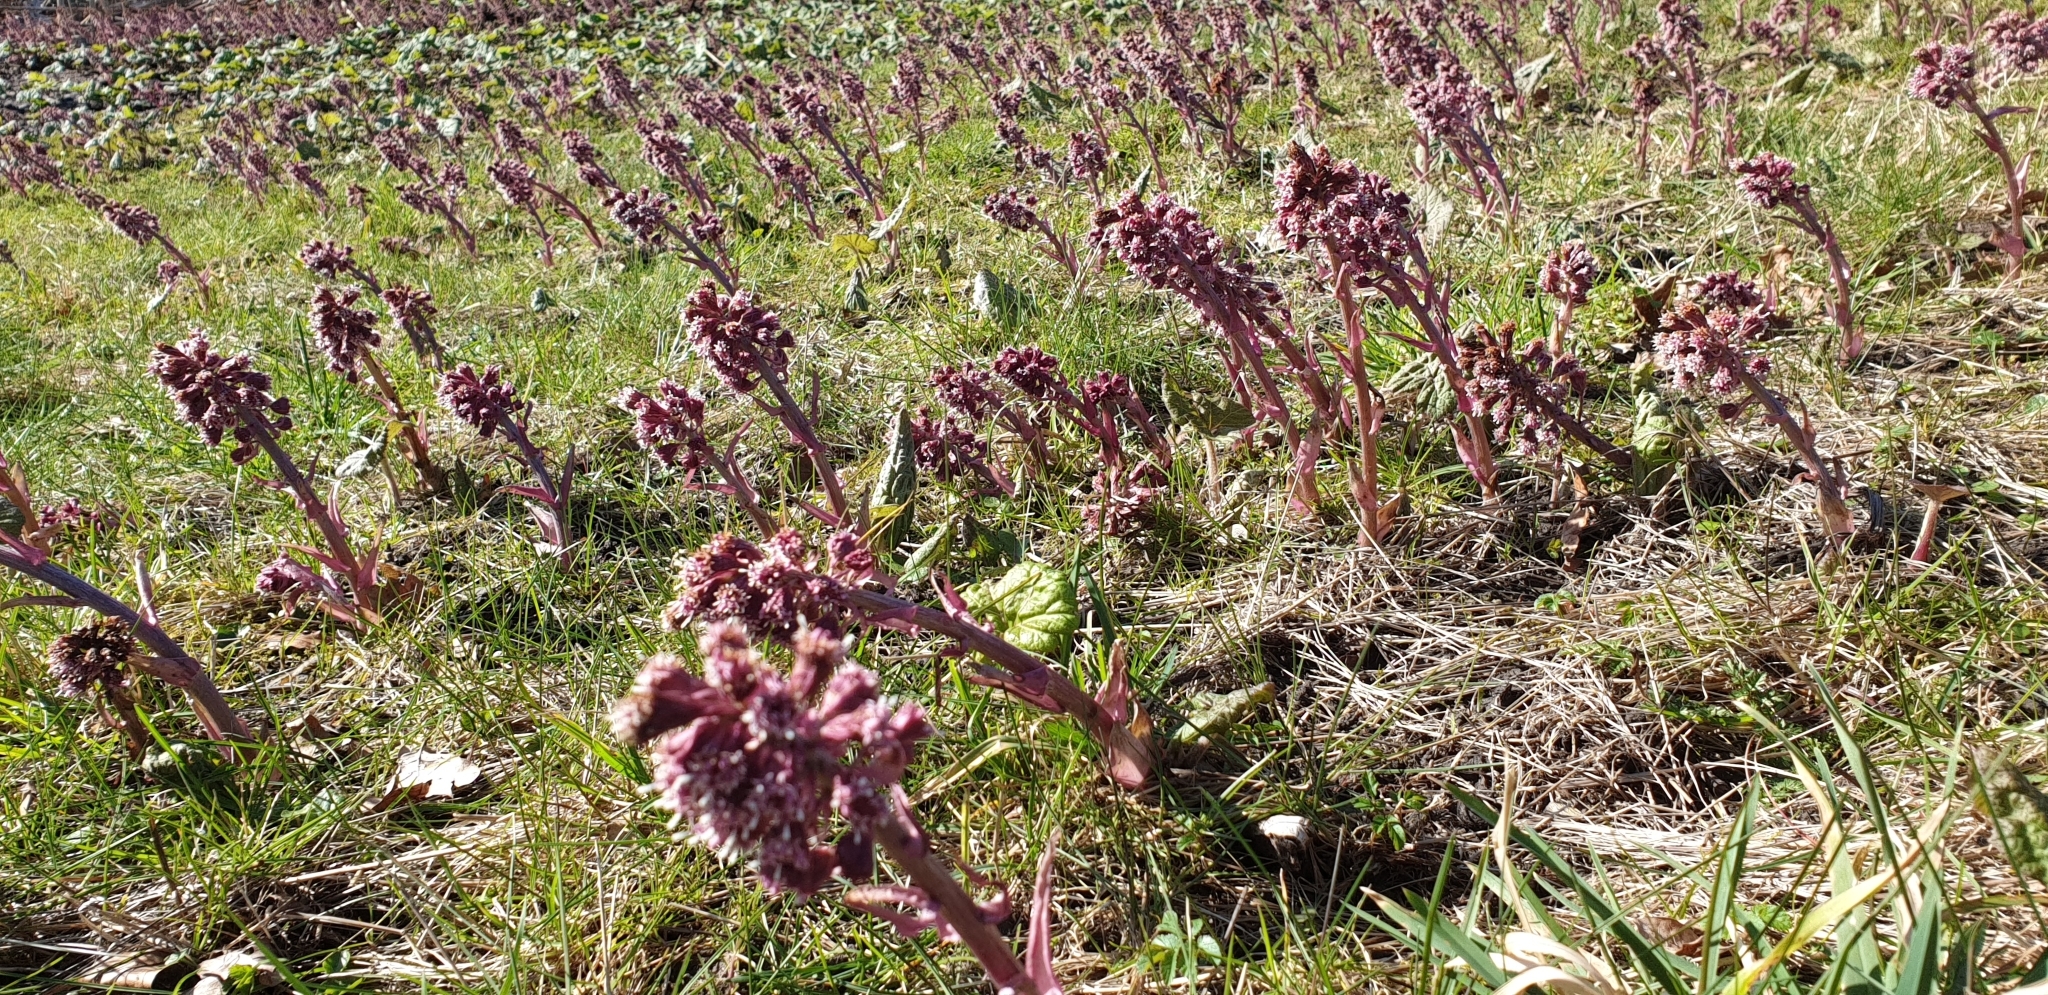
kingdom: Plantae
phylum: Tracheophyta
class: Magnoliopsida
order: Asterales
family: Asteraceae
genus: Petasites
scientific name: Petasites hybridus
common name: Butterbur
